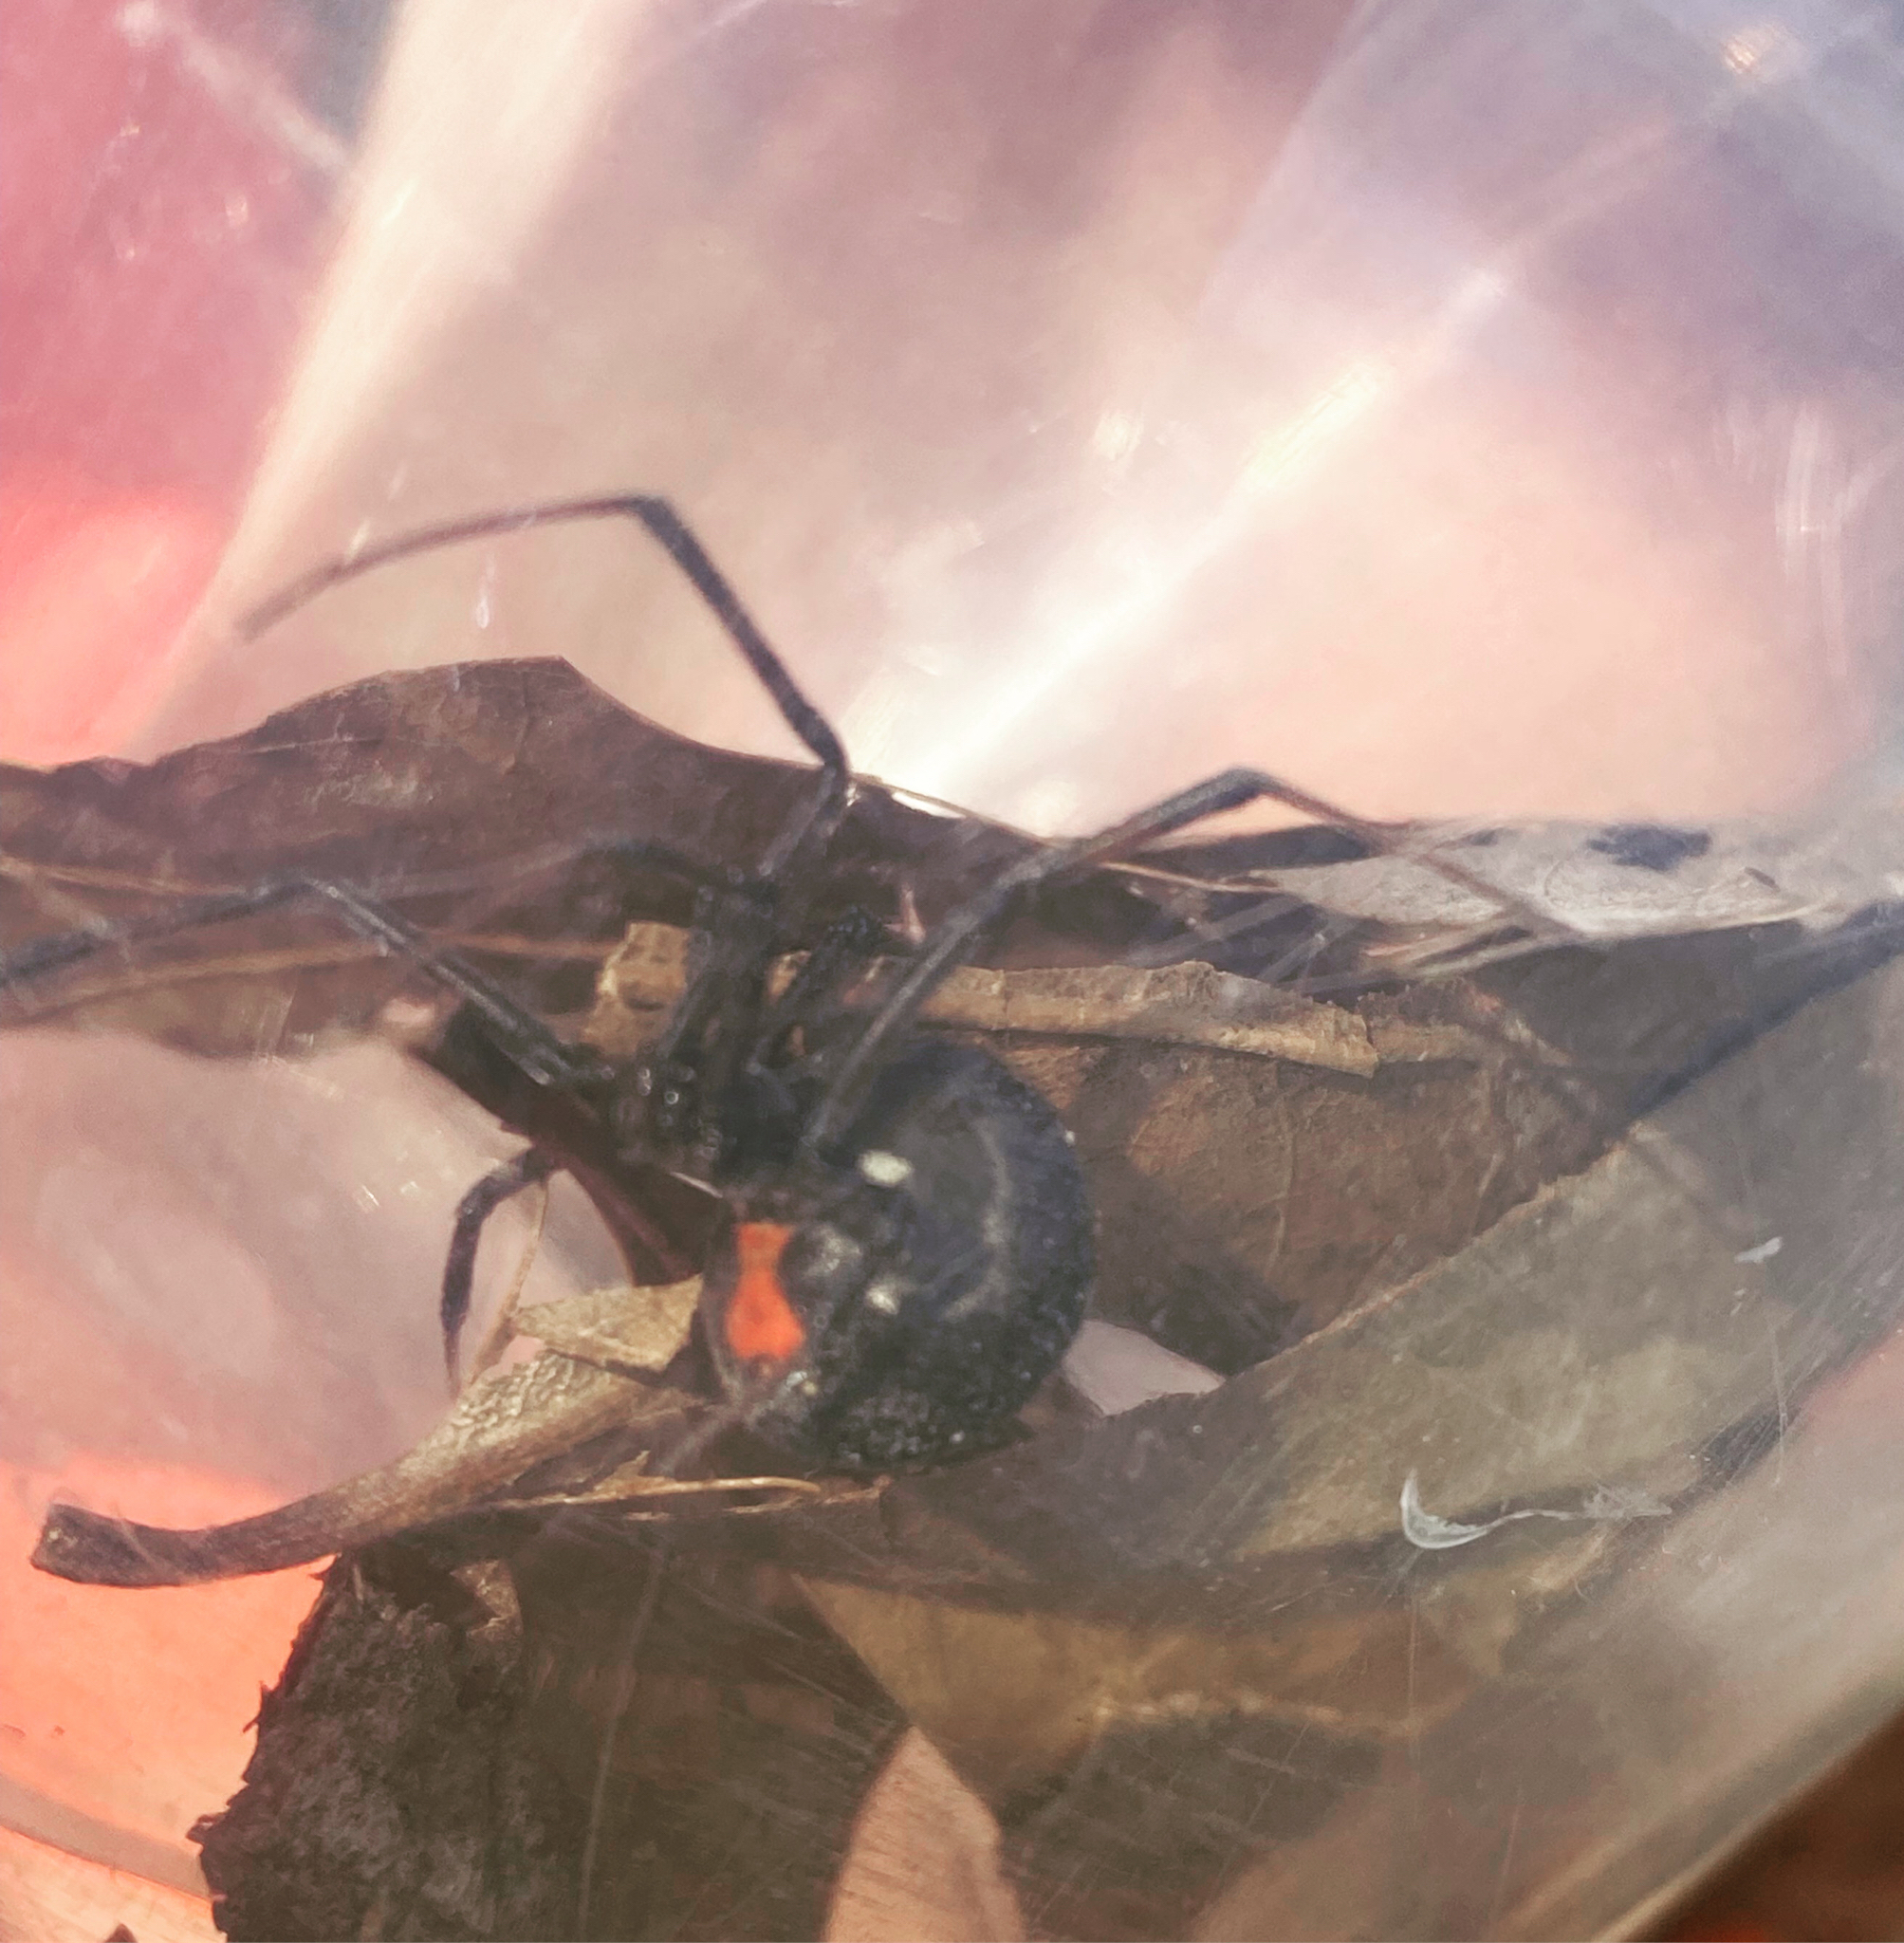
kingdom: Animalia
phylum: Arthropoda
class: Arachnida
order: Araneae
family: Theridiidae
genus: Latrodectus
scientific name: Latrodectus geometricus
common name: Brown widow spider
